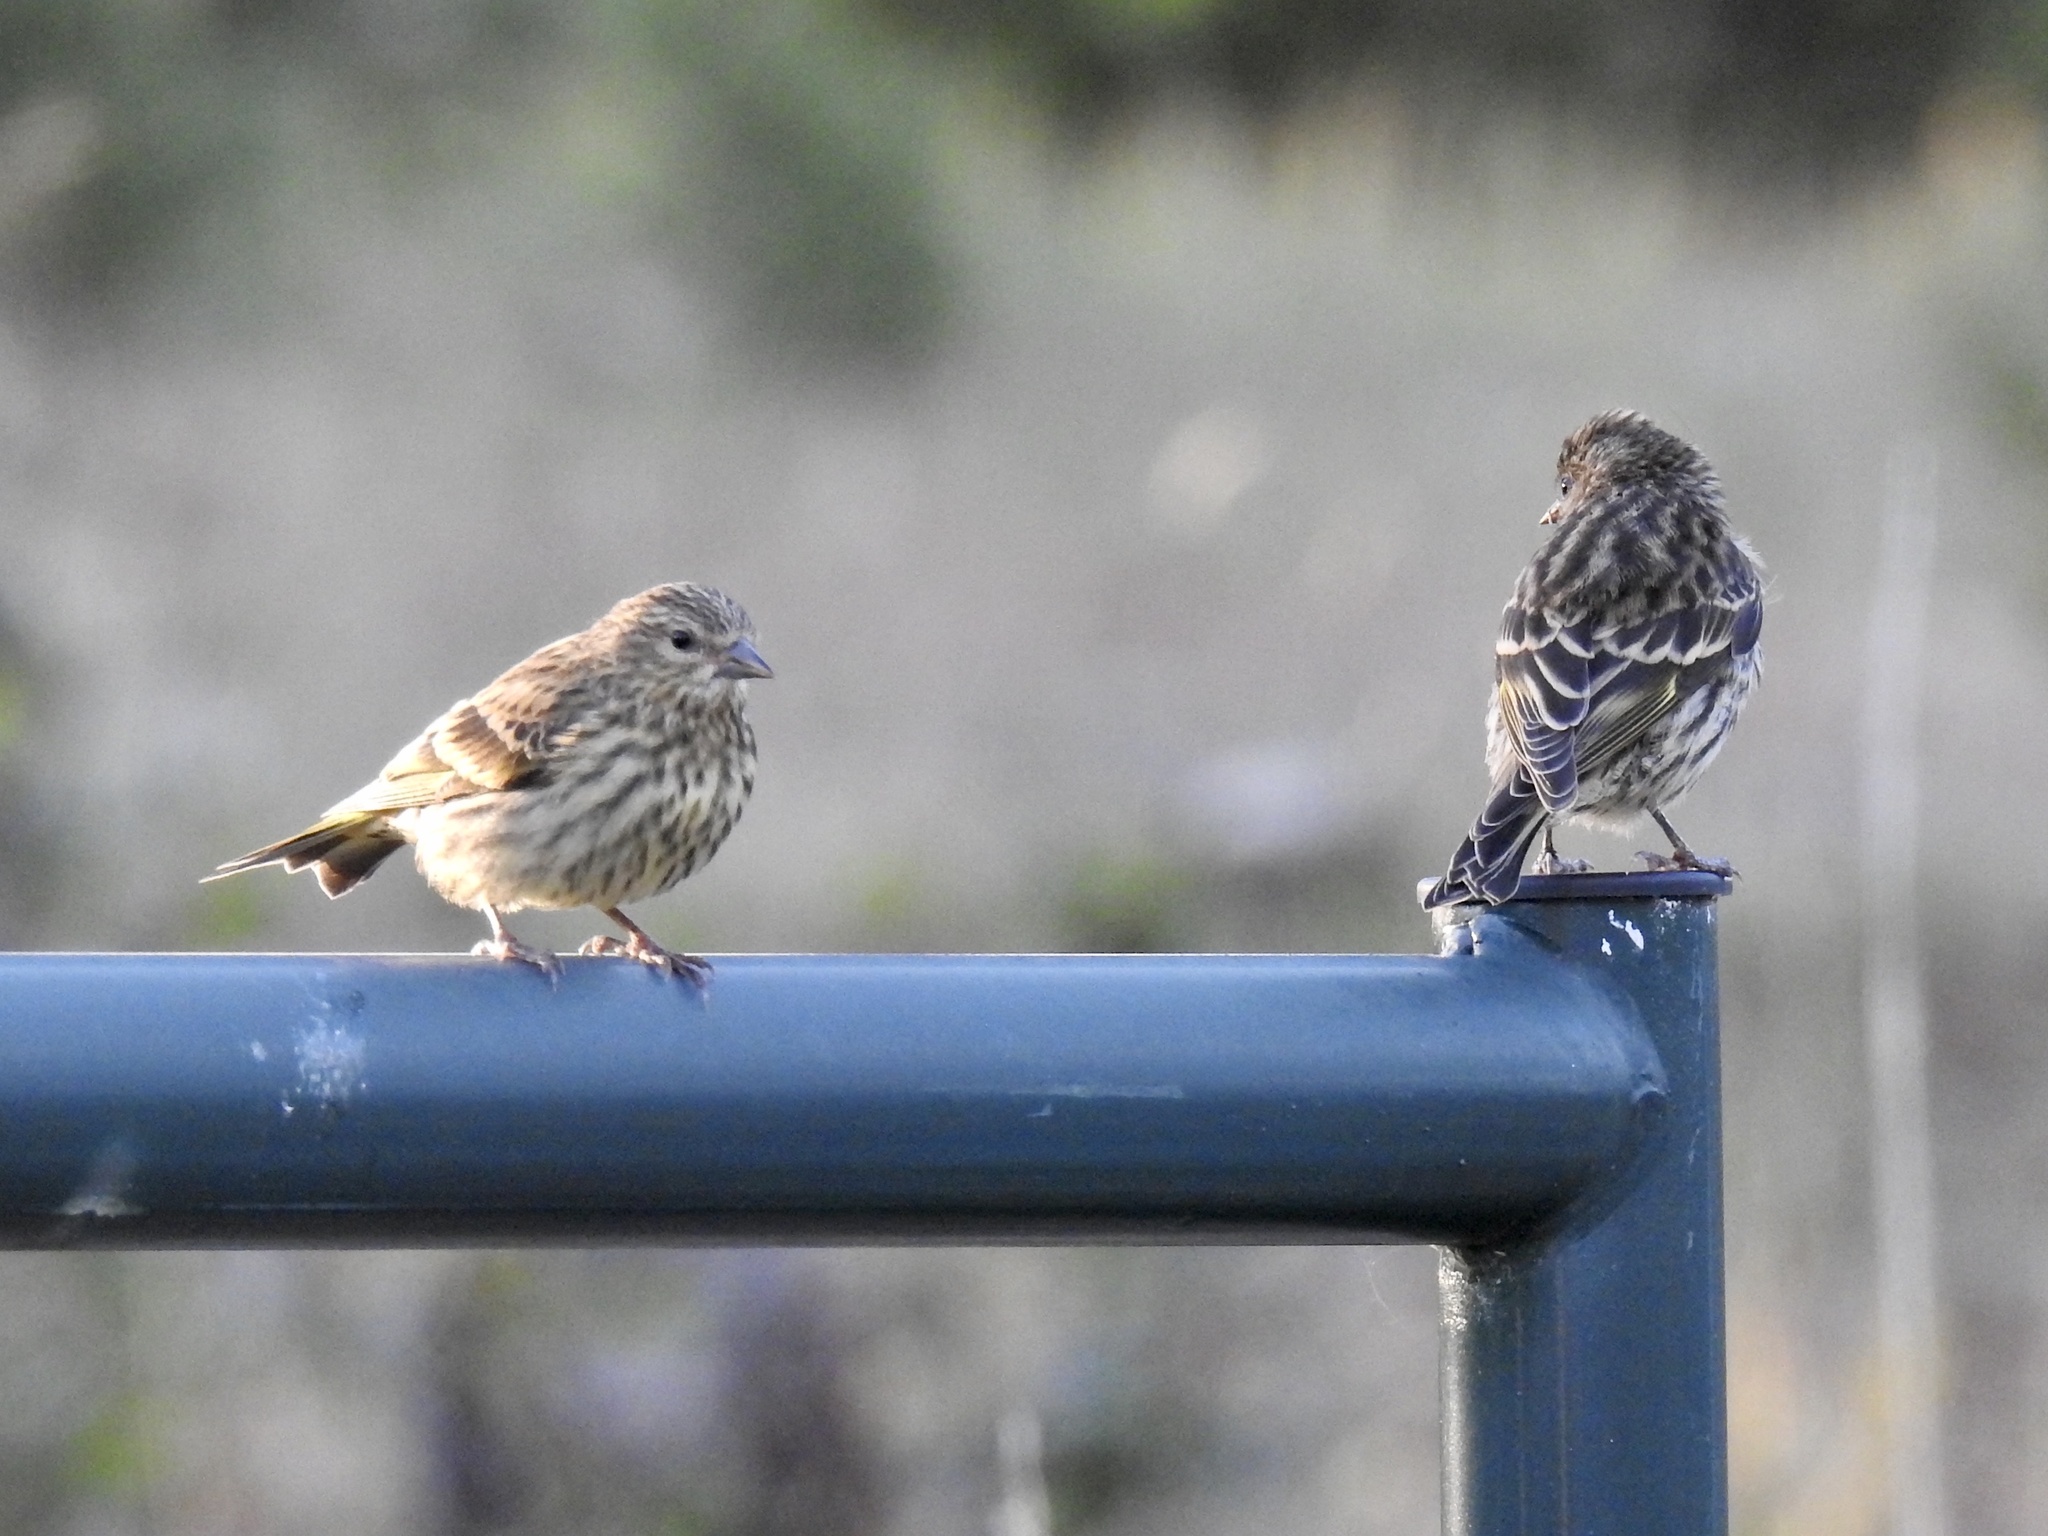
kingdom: Animalia
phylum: Chordata
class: Aves
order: Passeriformes
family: Fringillidae
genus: Spinus
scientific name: Spinus pinus
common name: Pine siskin
